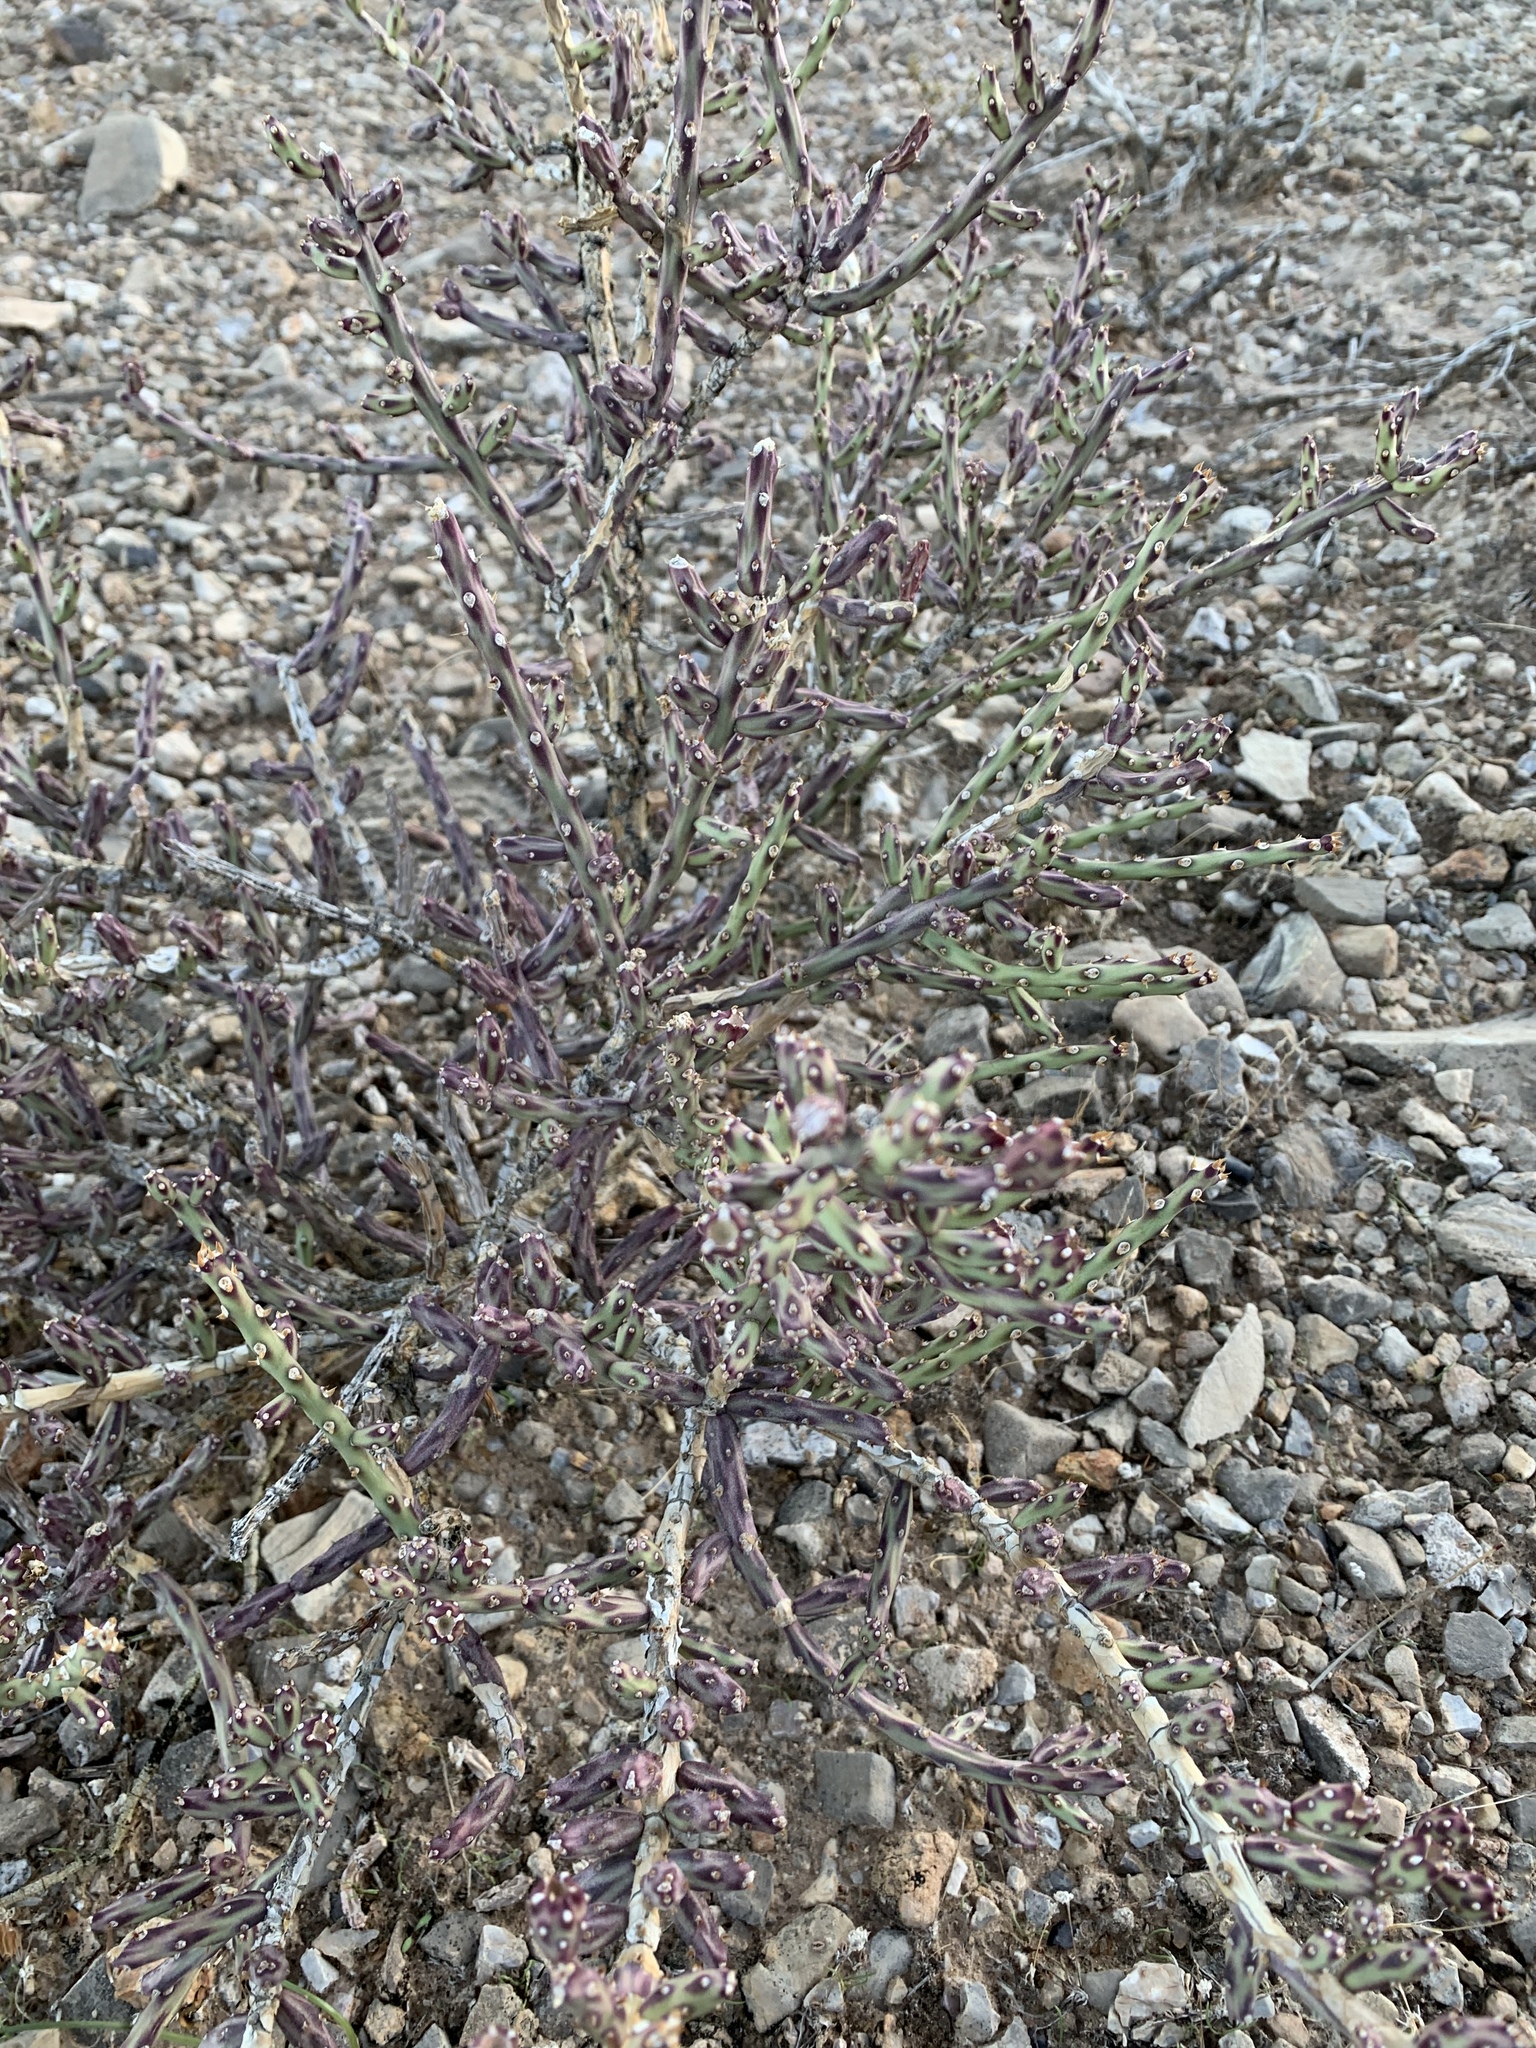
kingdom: Plantae
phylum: Tracheophyta
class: Magnoliopsida
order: Caryophyllales
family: Cactaceae
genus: Cylindropuntia
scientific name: Cylindropuntia leptocaulis
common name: Christmas cactus
